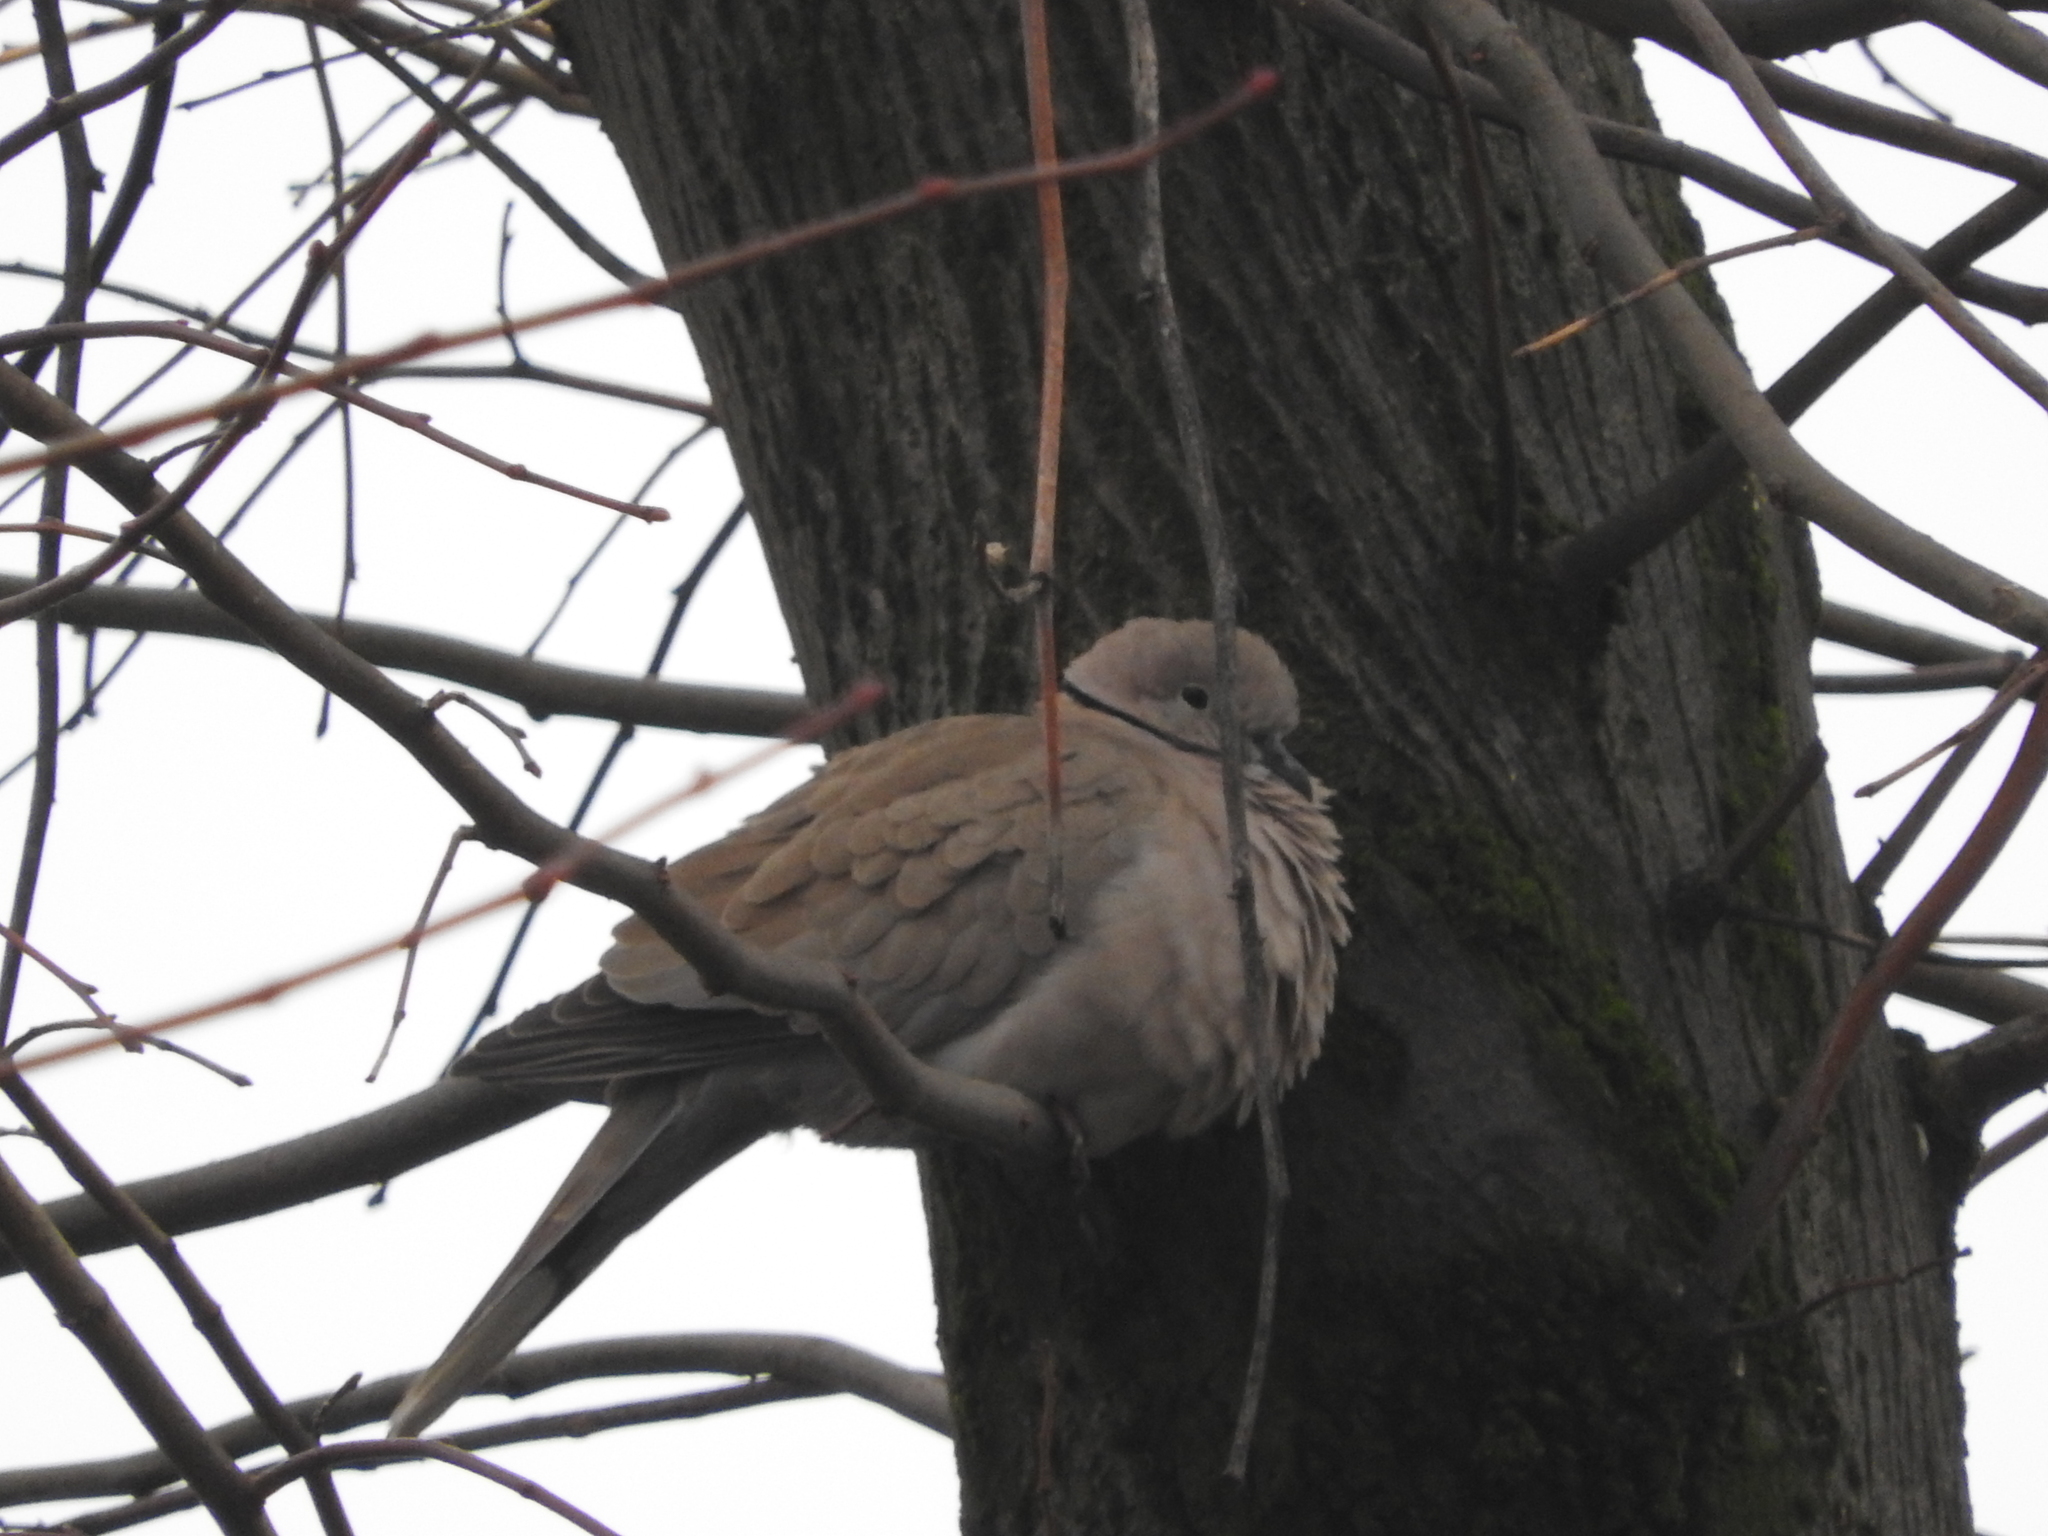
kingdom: Animalia
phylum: Chordata
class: Aves
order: Columbiformes
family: Columbidae
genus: Streptopelia
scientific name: Streptopelia decaocto
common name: Eurasian collared dove
